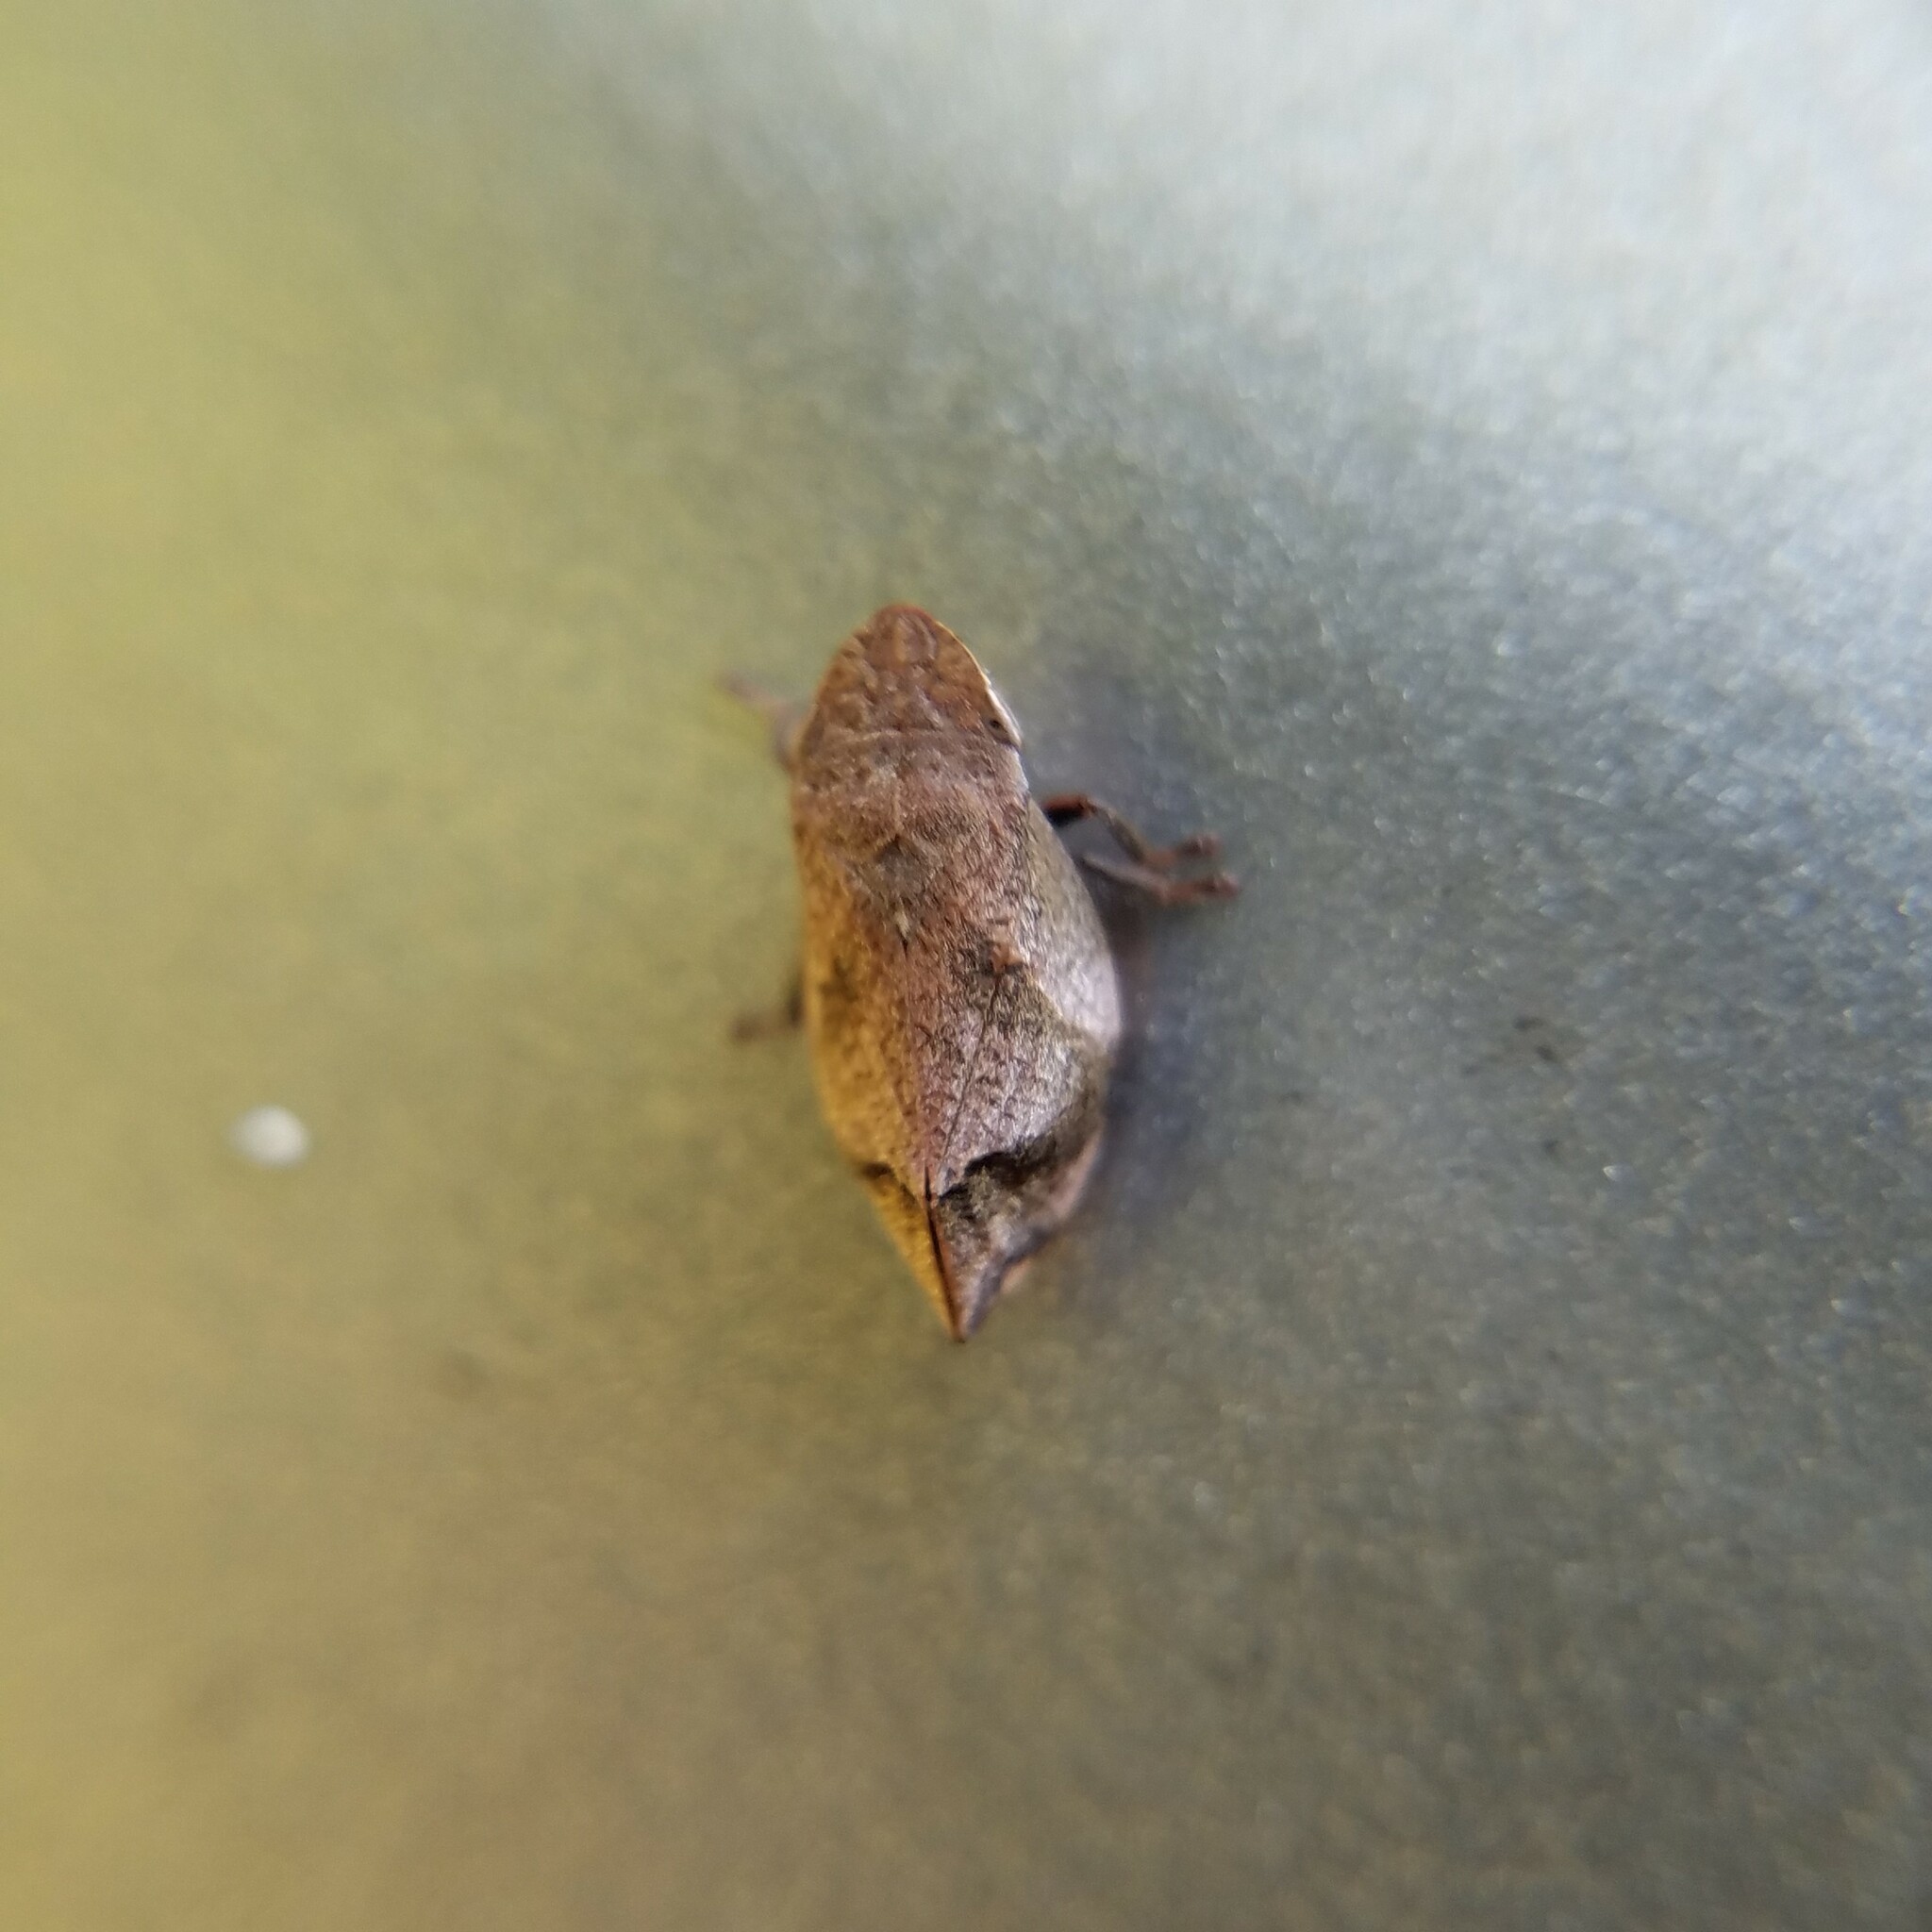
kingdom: Animalia
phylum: Arthropoda
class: Insecta
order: Hemiptera
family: Aphrophoridae
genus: Lepyronia
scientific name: Lepyronia quadrangularis
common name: Diamond-backed spittlebug
